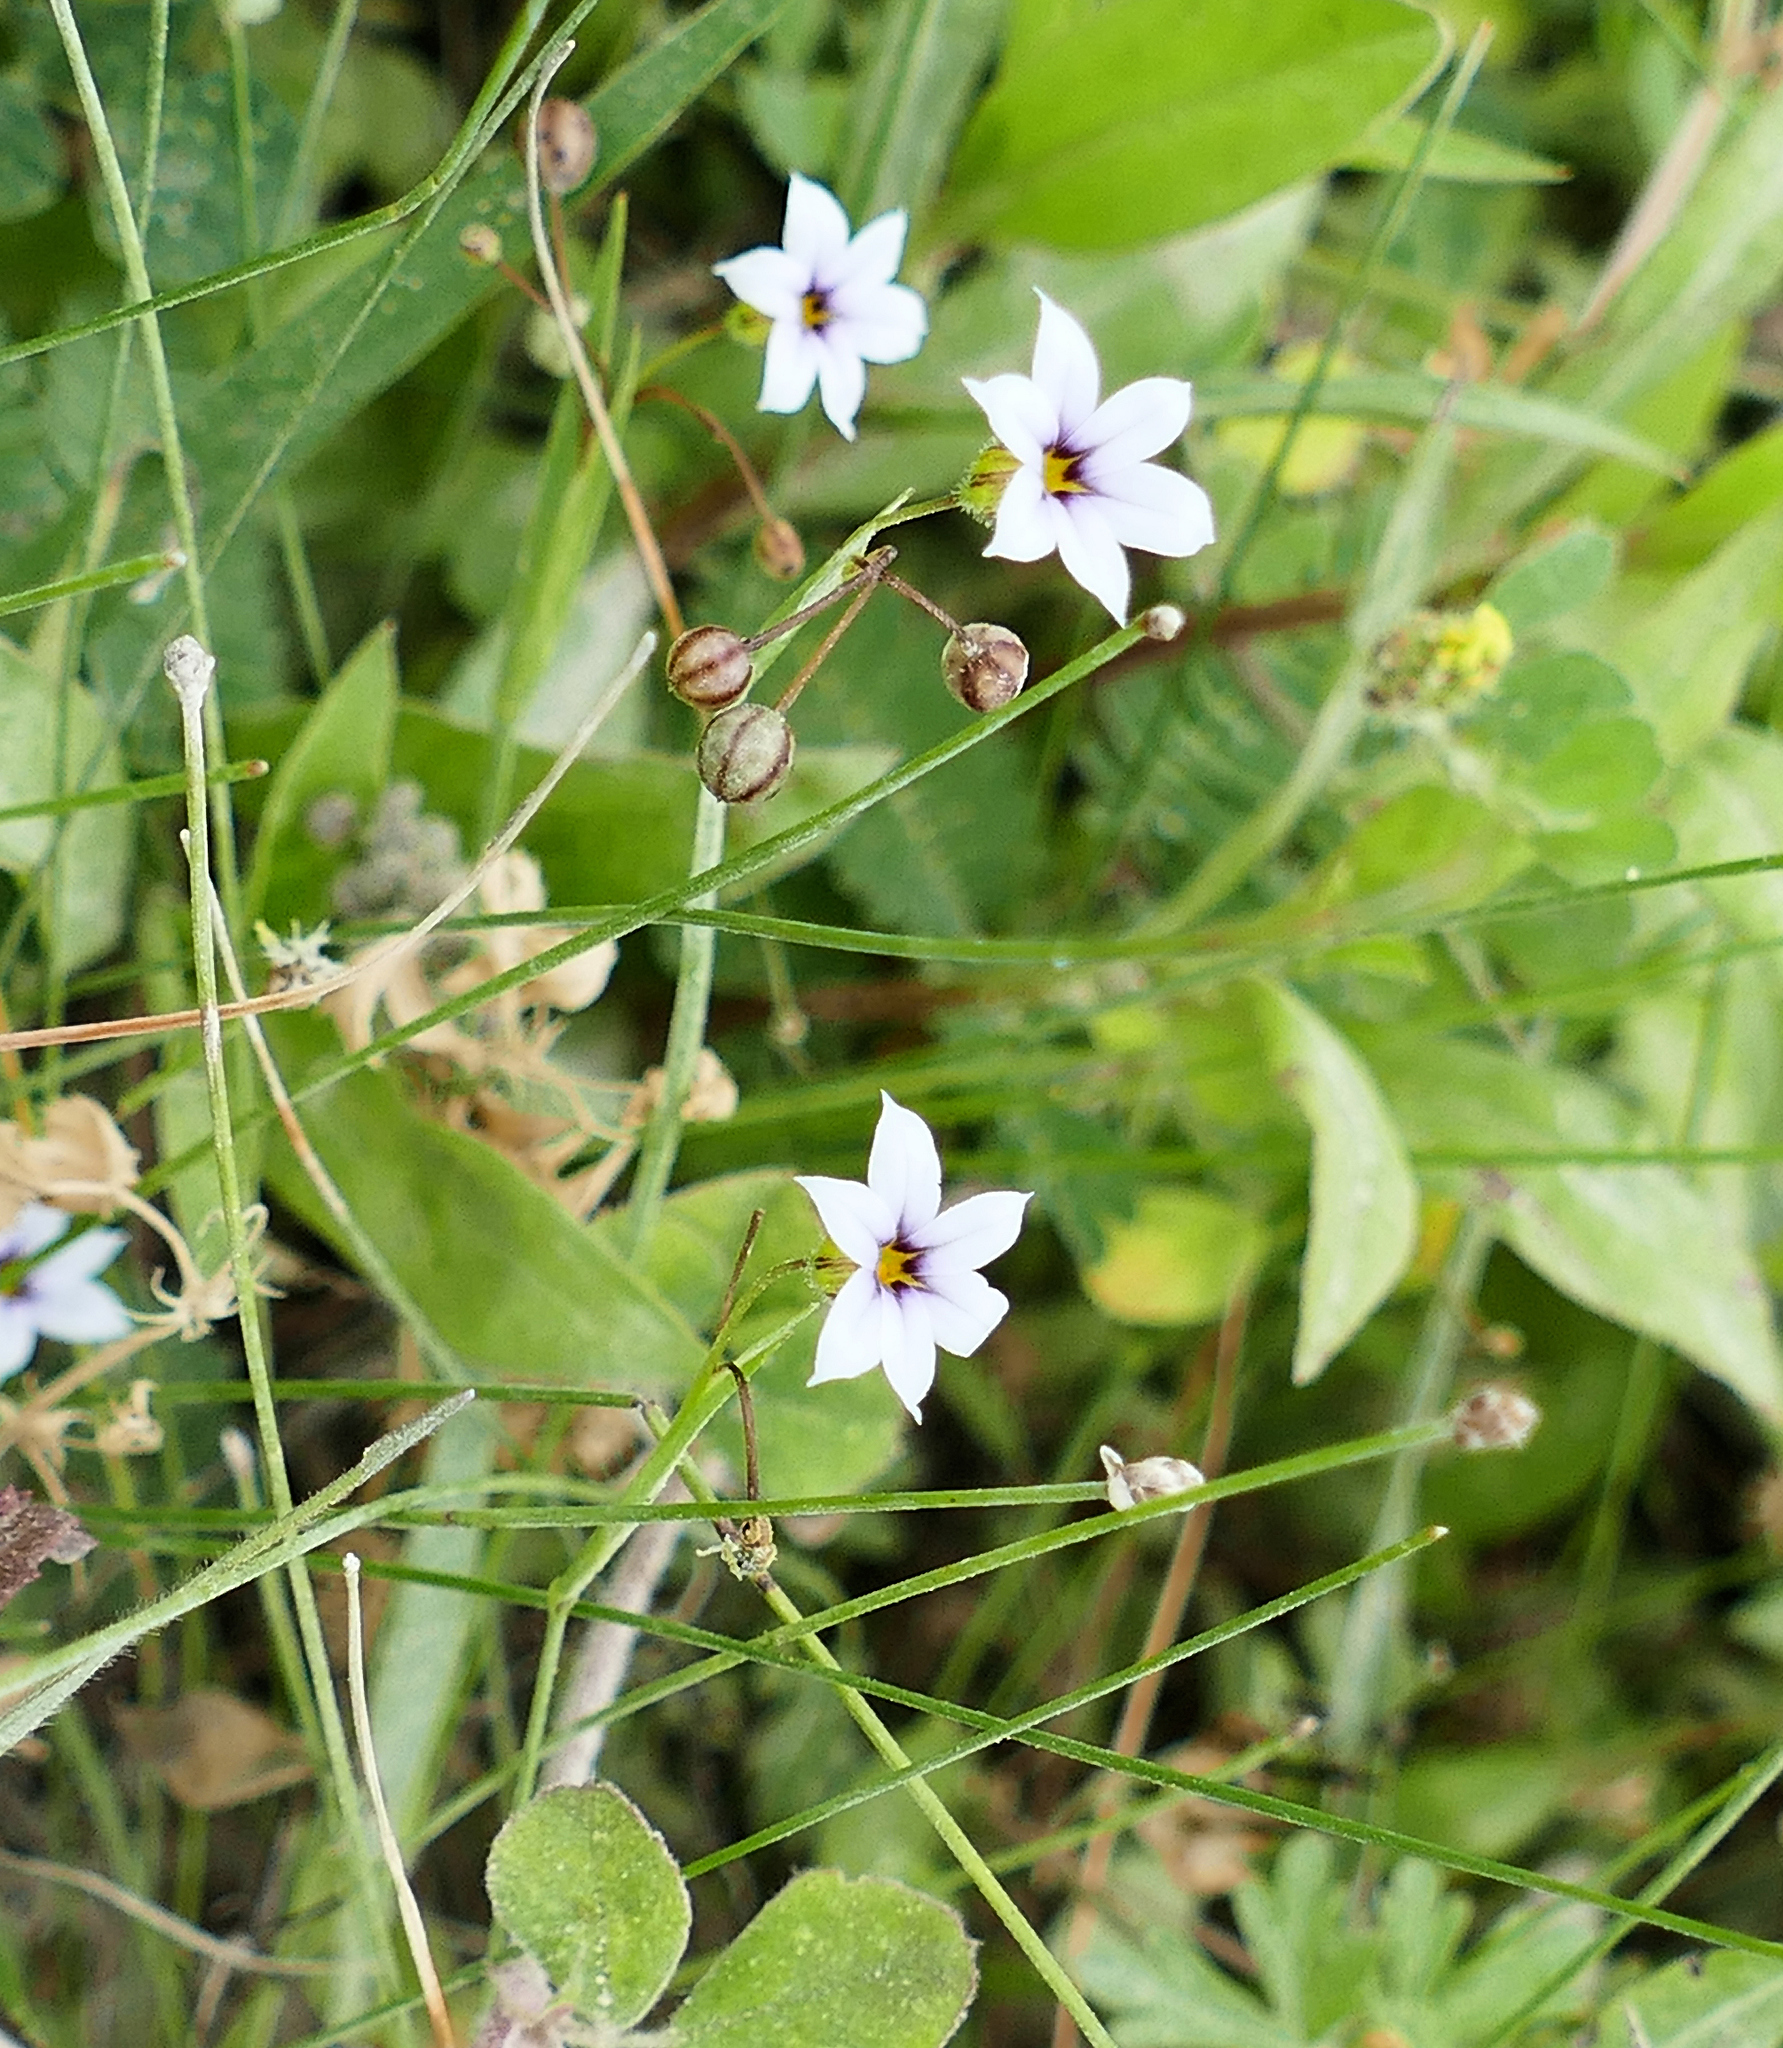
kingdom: Plantae
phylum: Tracheophyta
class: Liliopsida
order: Asparagales
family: Iridaceae
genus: Sisyrinchium
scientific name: Sisyrinchium micranthum
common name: Bermuda pigroot
